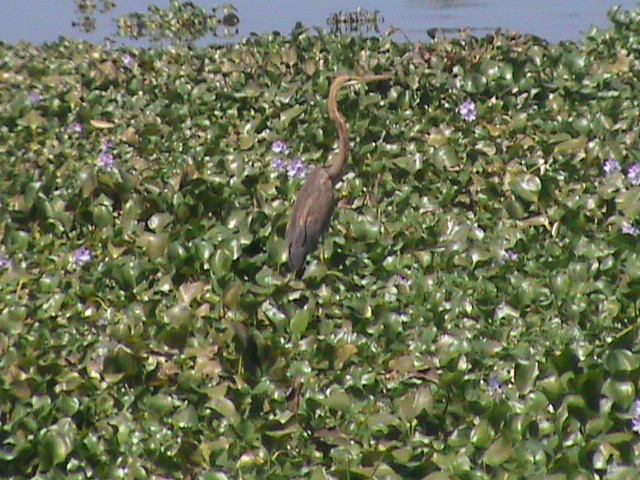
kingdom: Animalia
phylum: Chordata
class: Aves
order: Pelecaniformes
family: Ardeidae
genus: Ardea
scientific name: Ardea purpurea
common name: Purple heron
